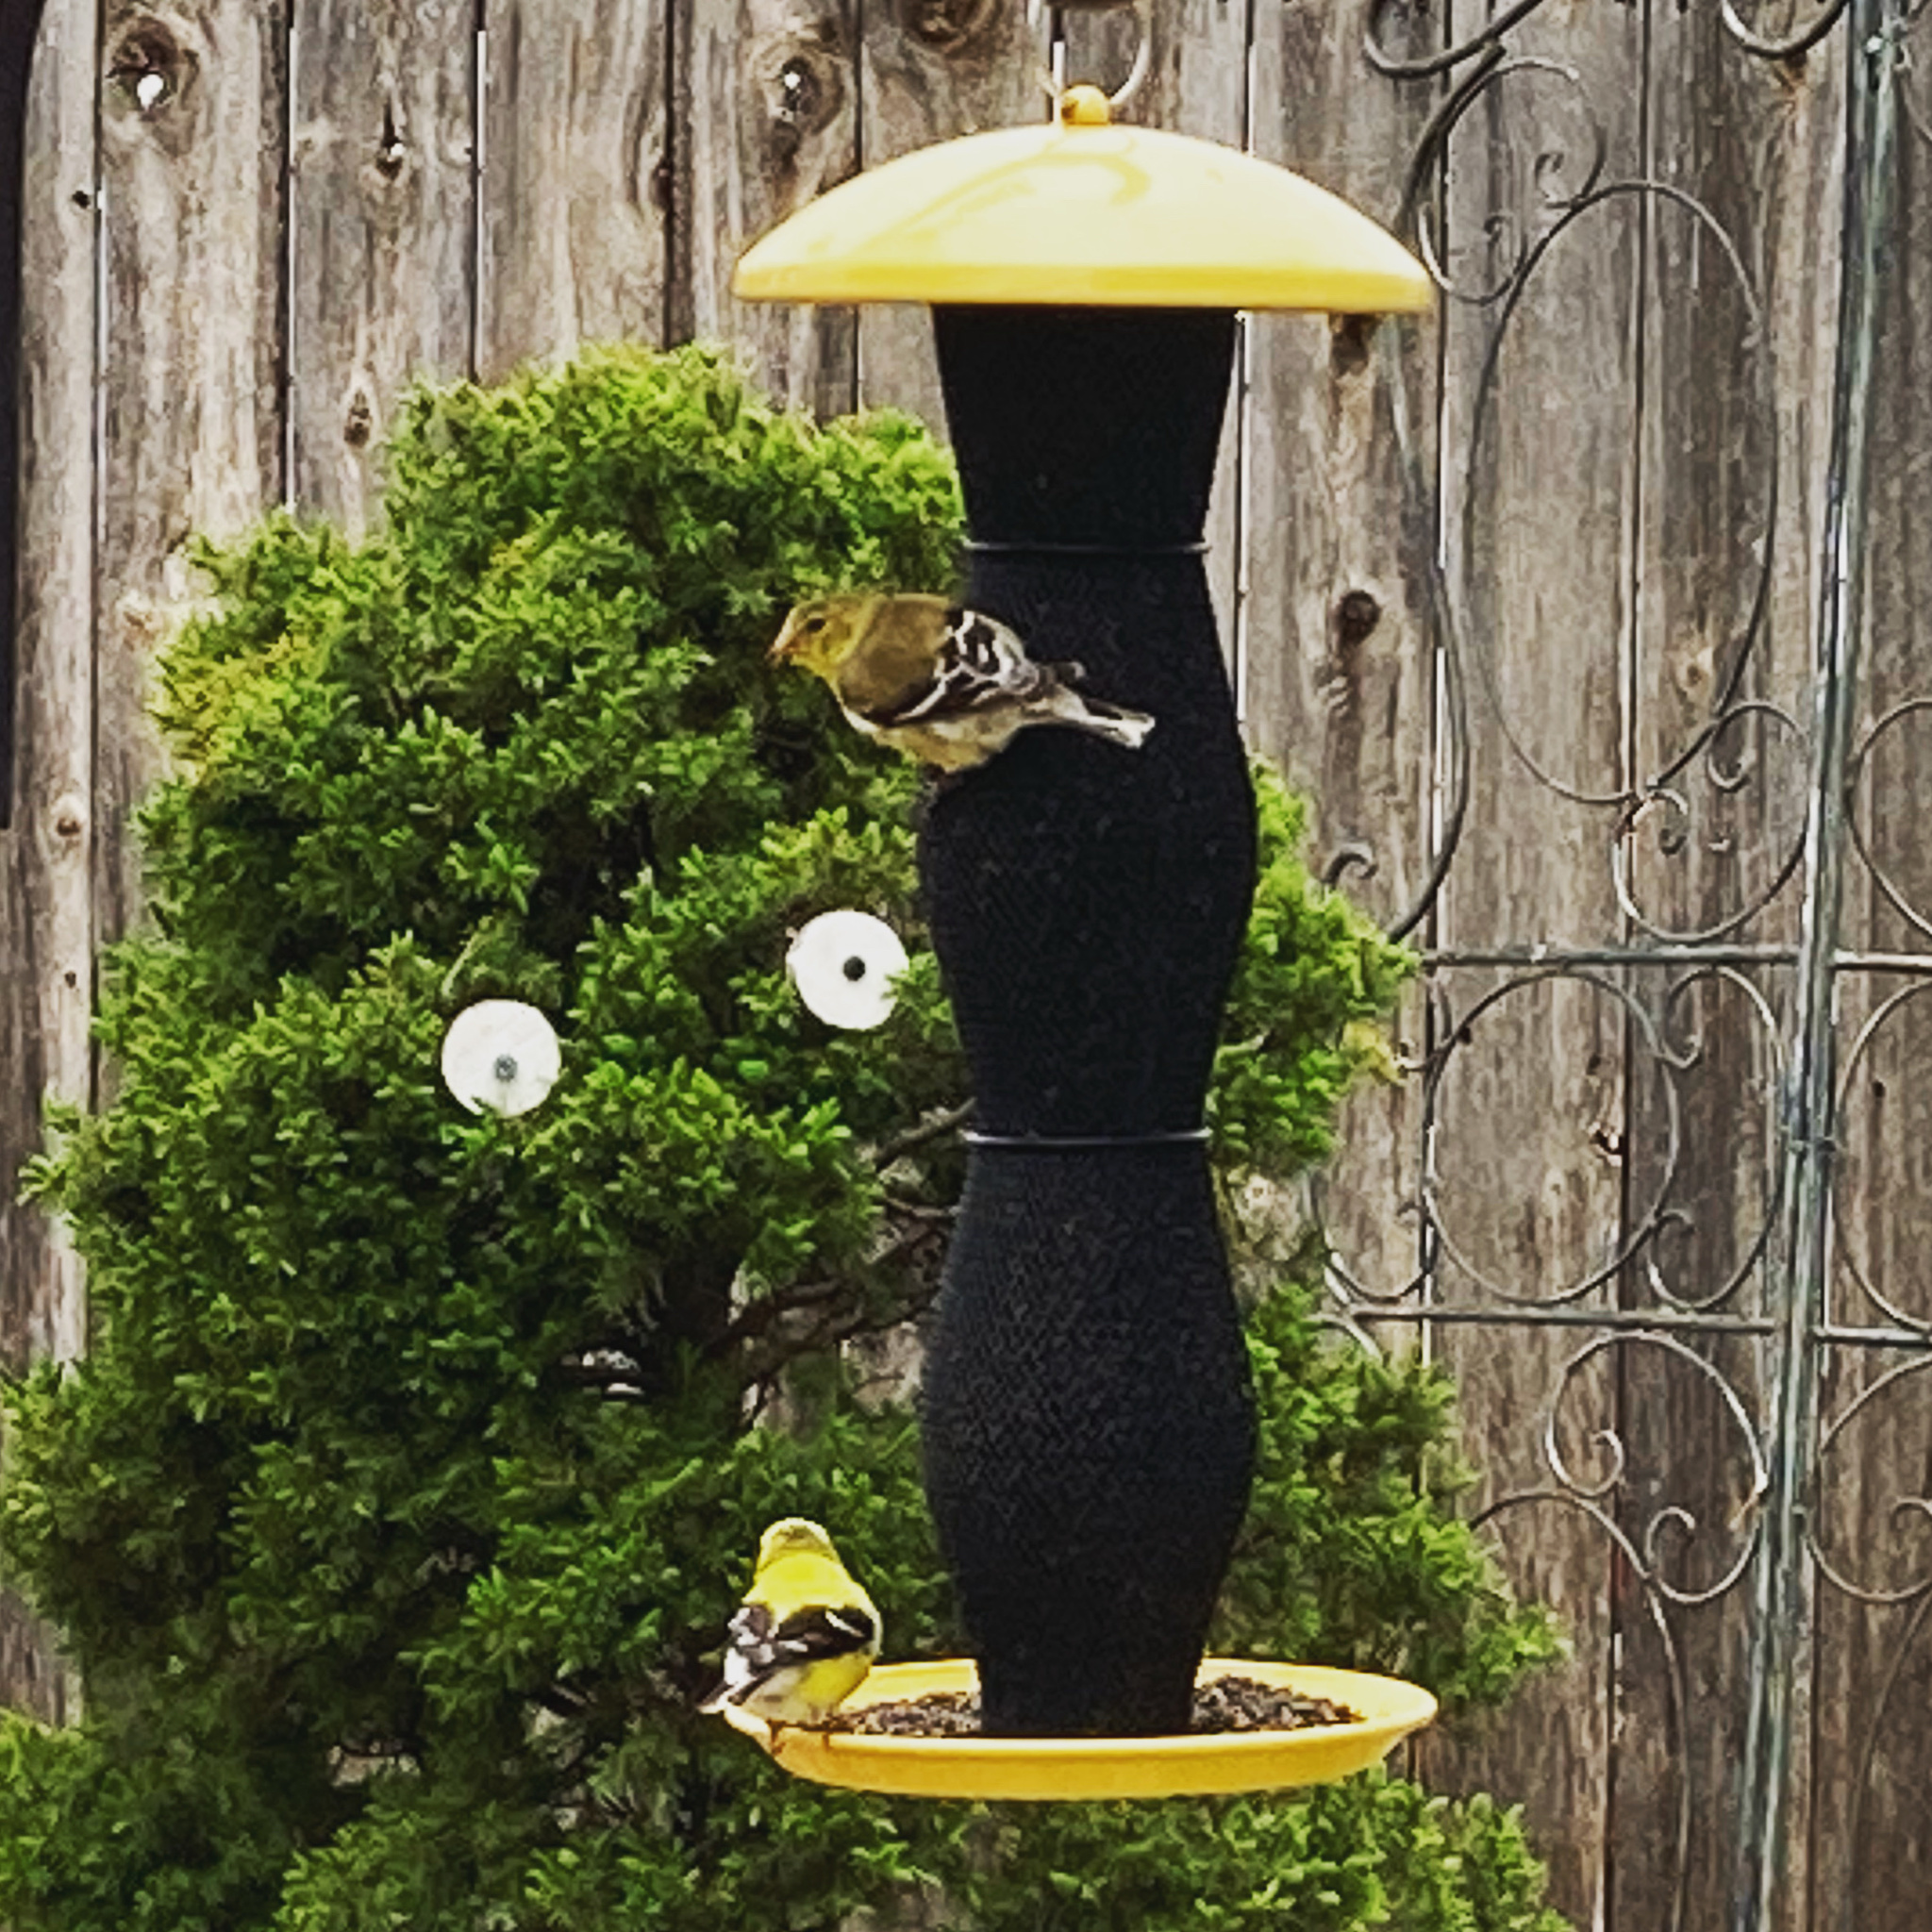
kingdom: Animalia
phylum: Chordata
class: Aves
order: Passeriformes
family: Fringillidae
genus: Spinus
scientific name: Spinus tristis
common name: American goldfinch
